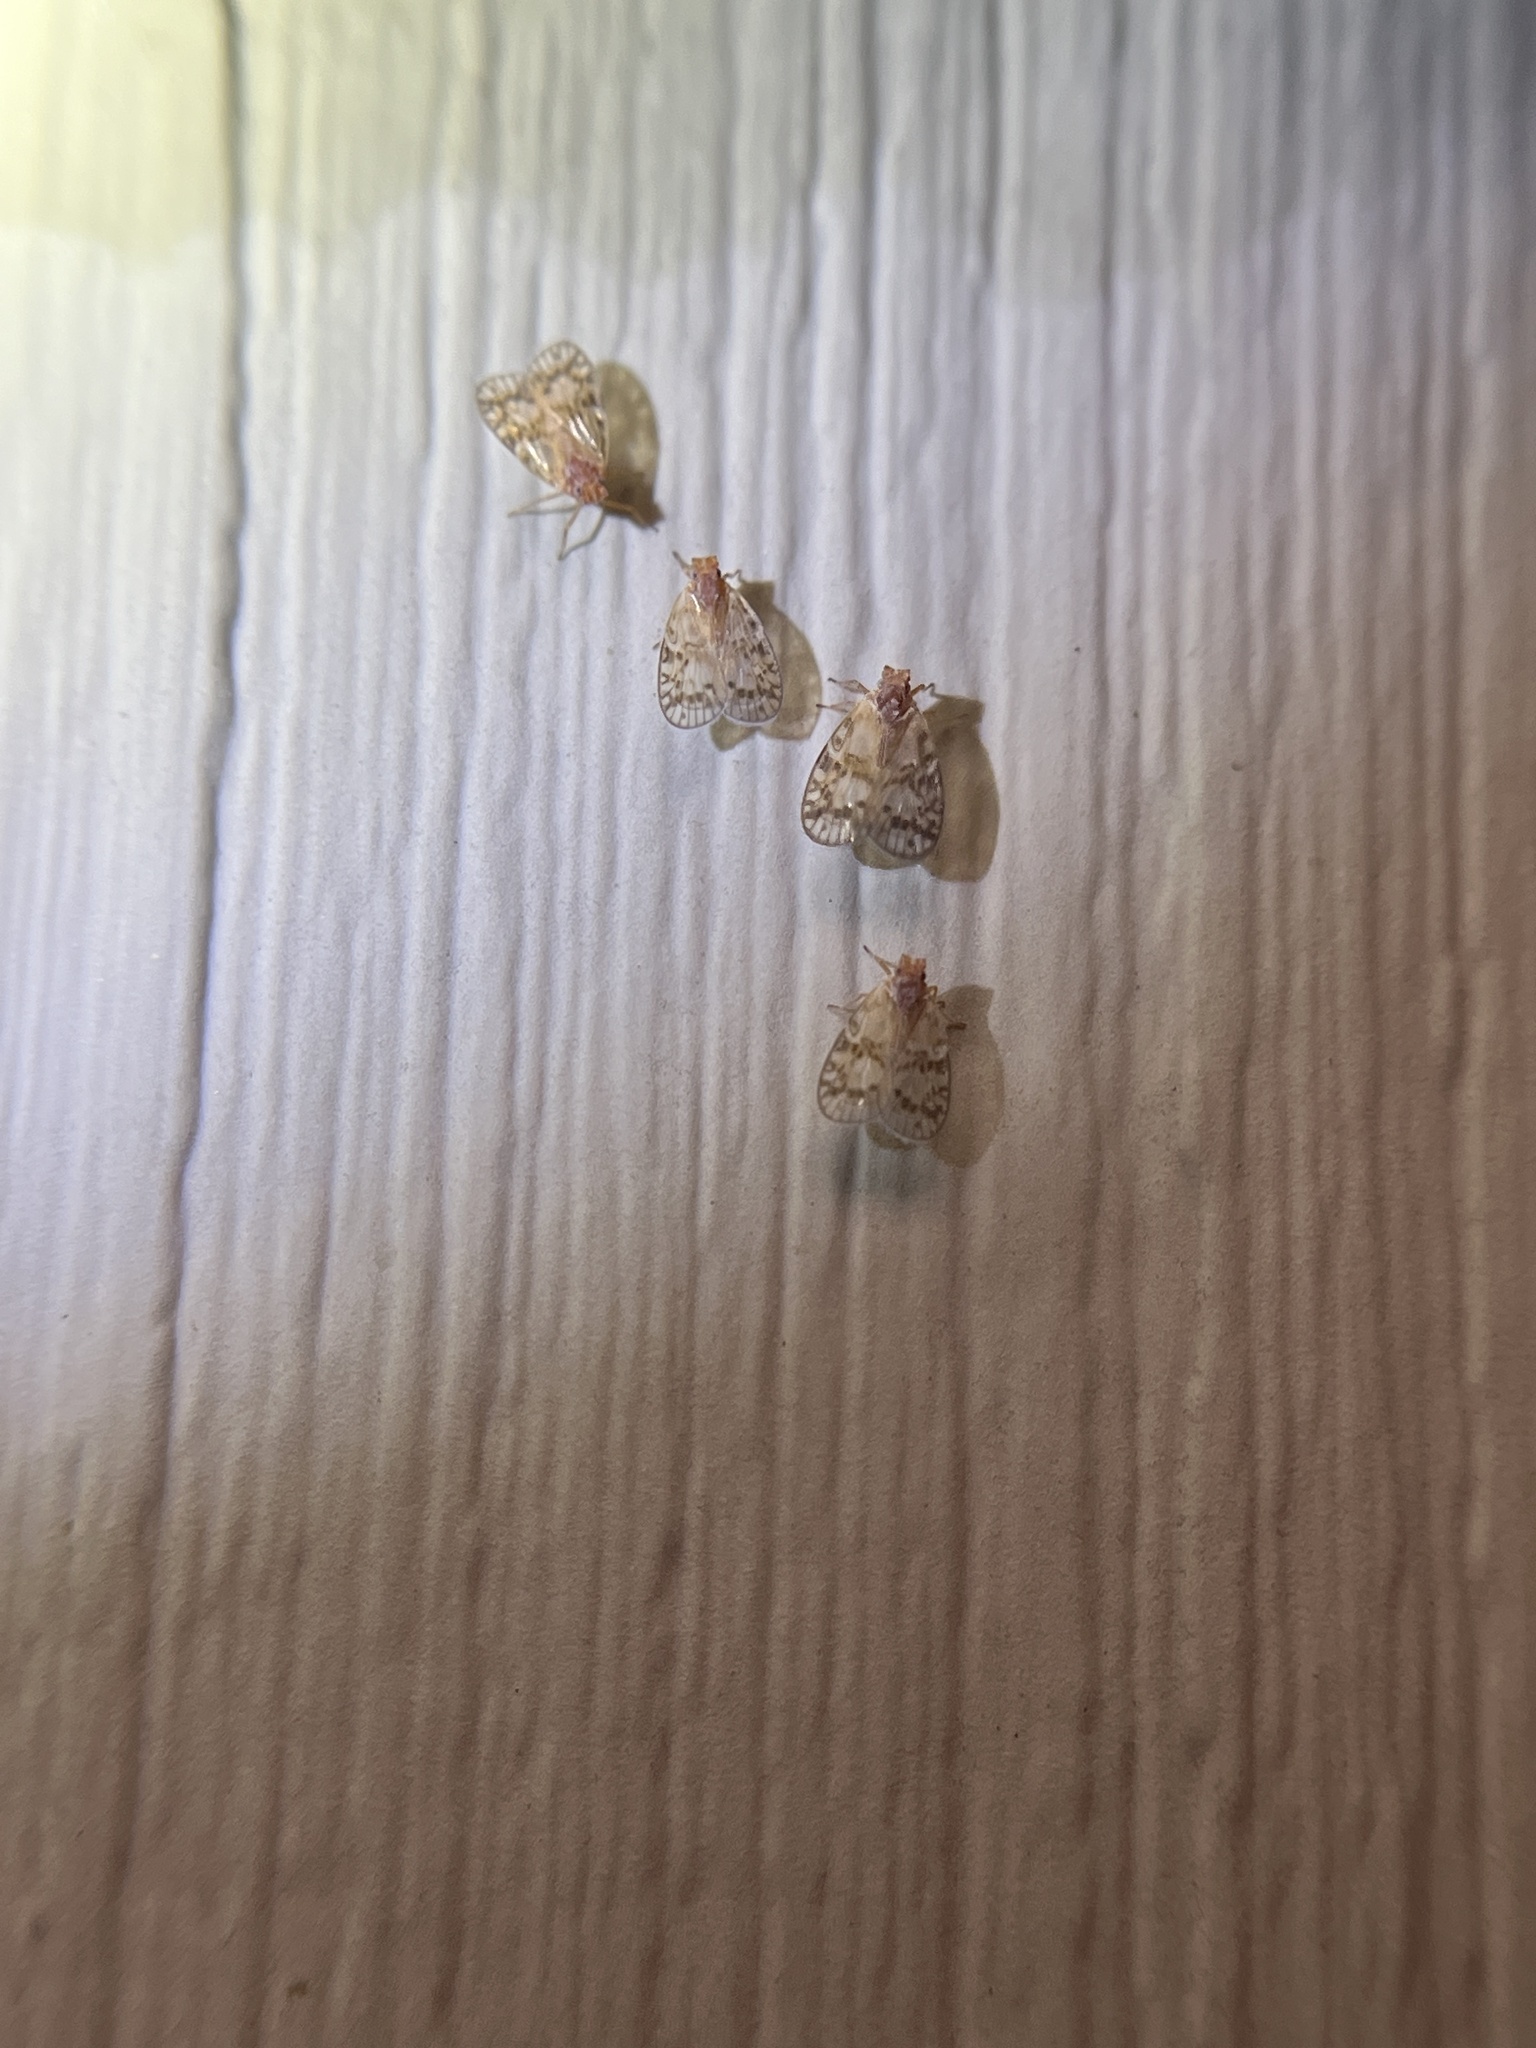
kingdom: Animalia
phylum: Arthropoda
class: Insecta
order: Hemiptera
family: Cixiidae
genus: Bothriocera
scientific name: Bothriocera drakei
